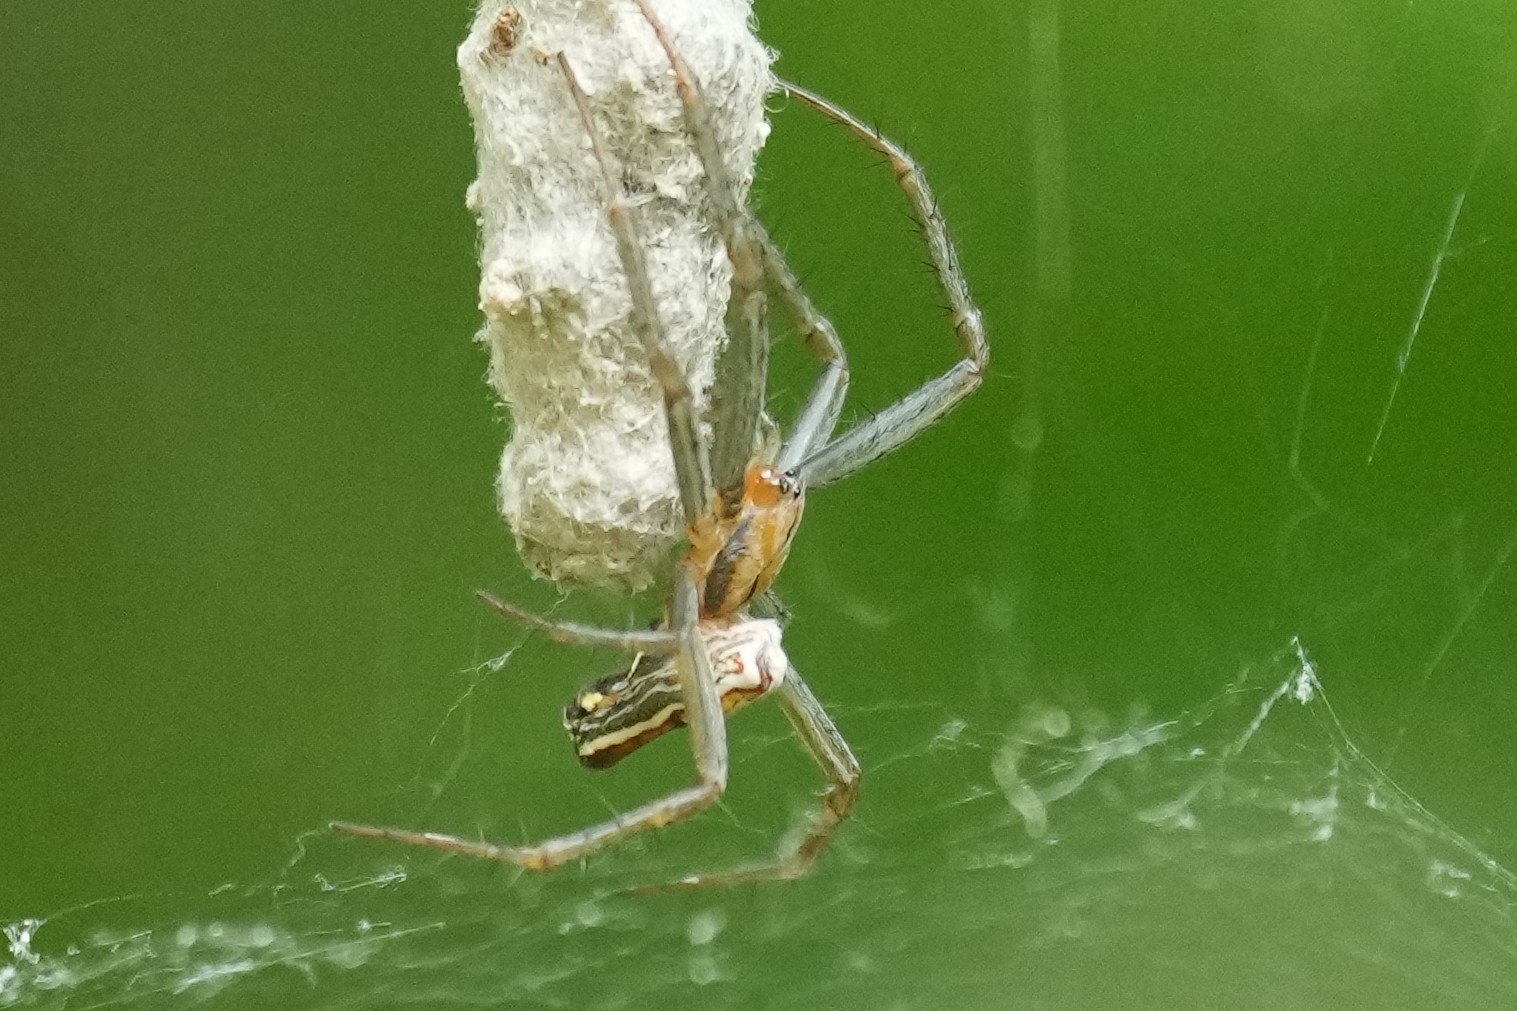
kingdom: Animalia
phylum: Arthropoda
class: Arachnida
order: Araneae
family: Araneidae
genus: Mecynogea
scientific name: Mecynogea lemniscata
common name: Orb weavers
